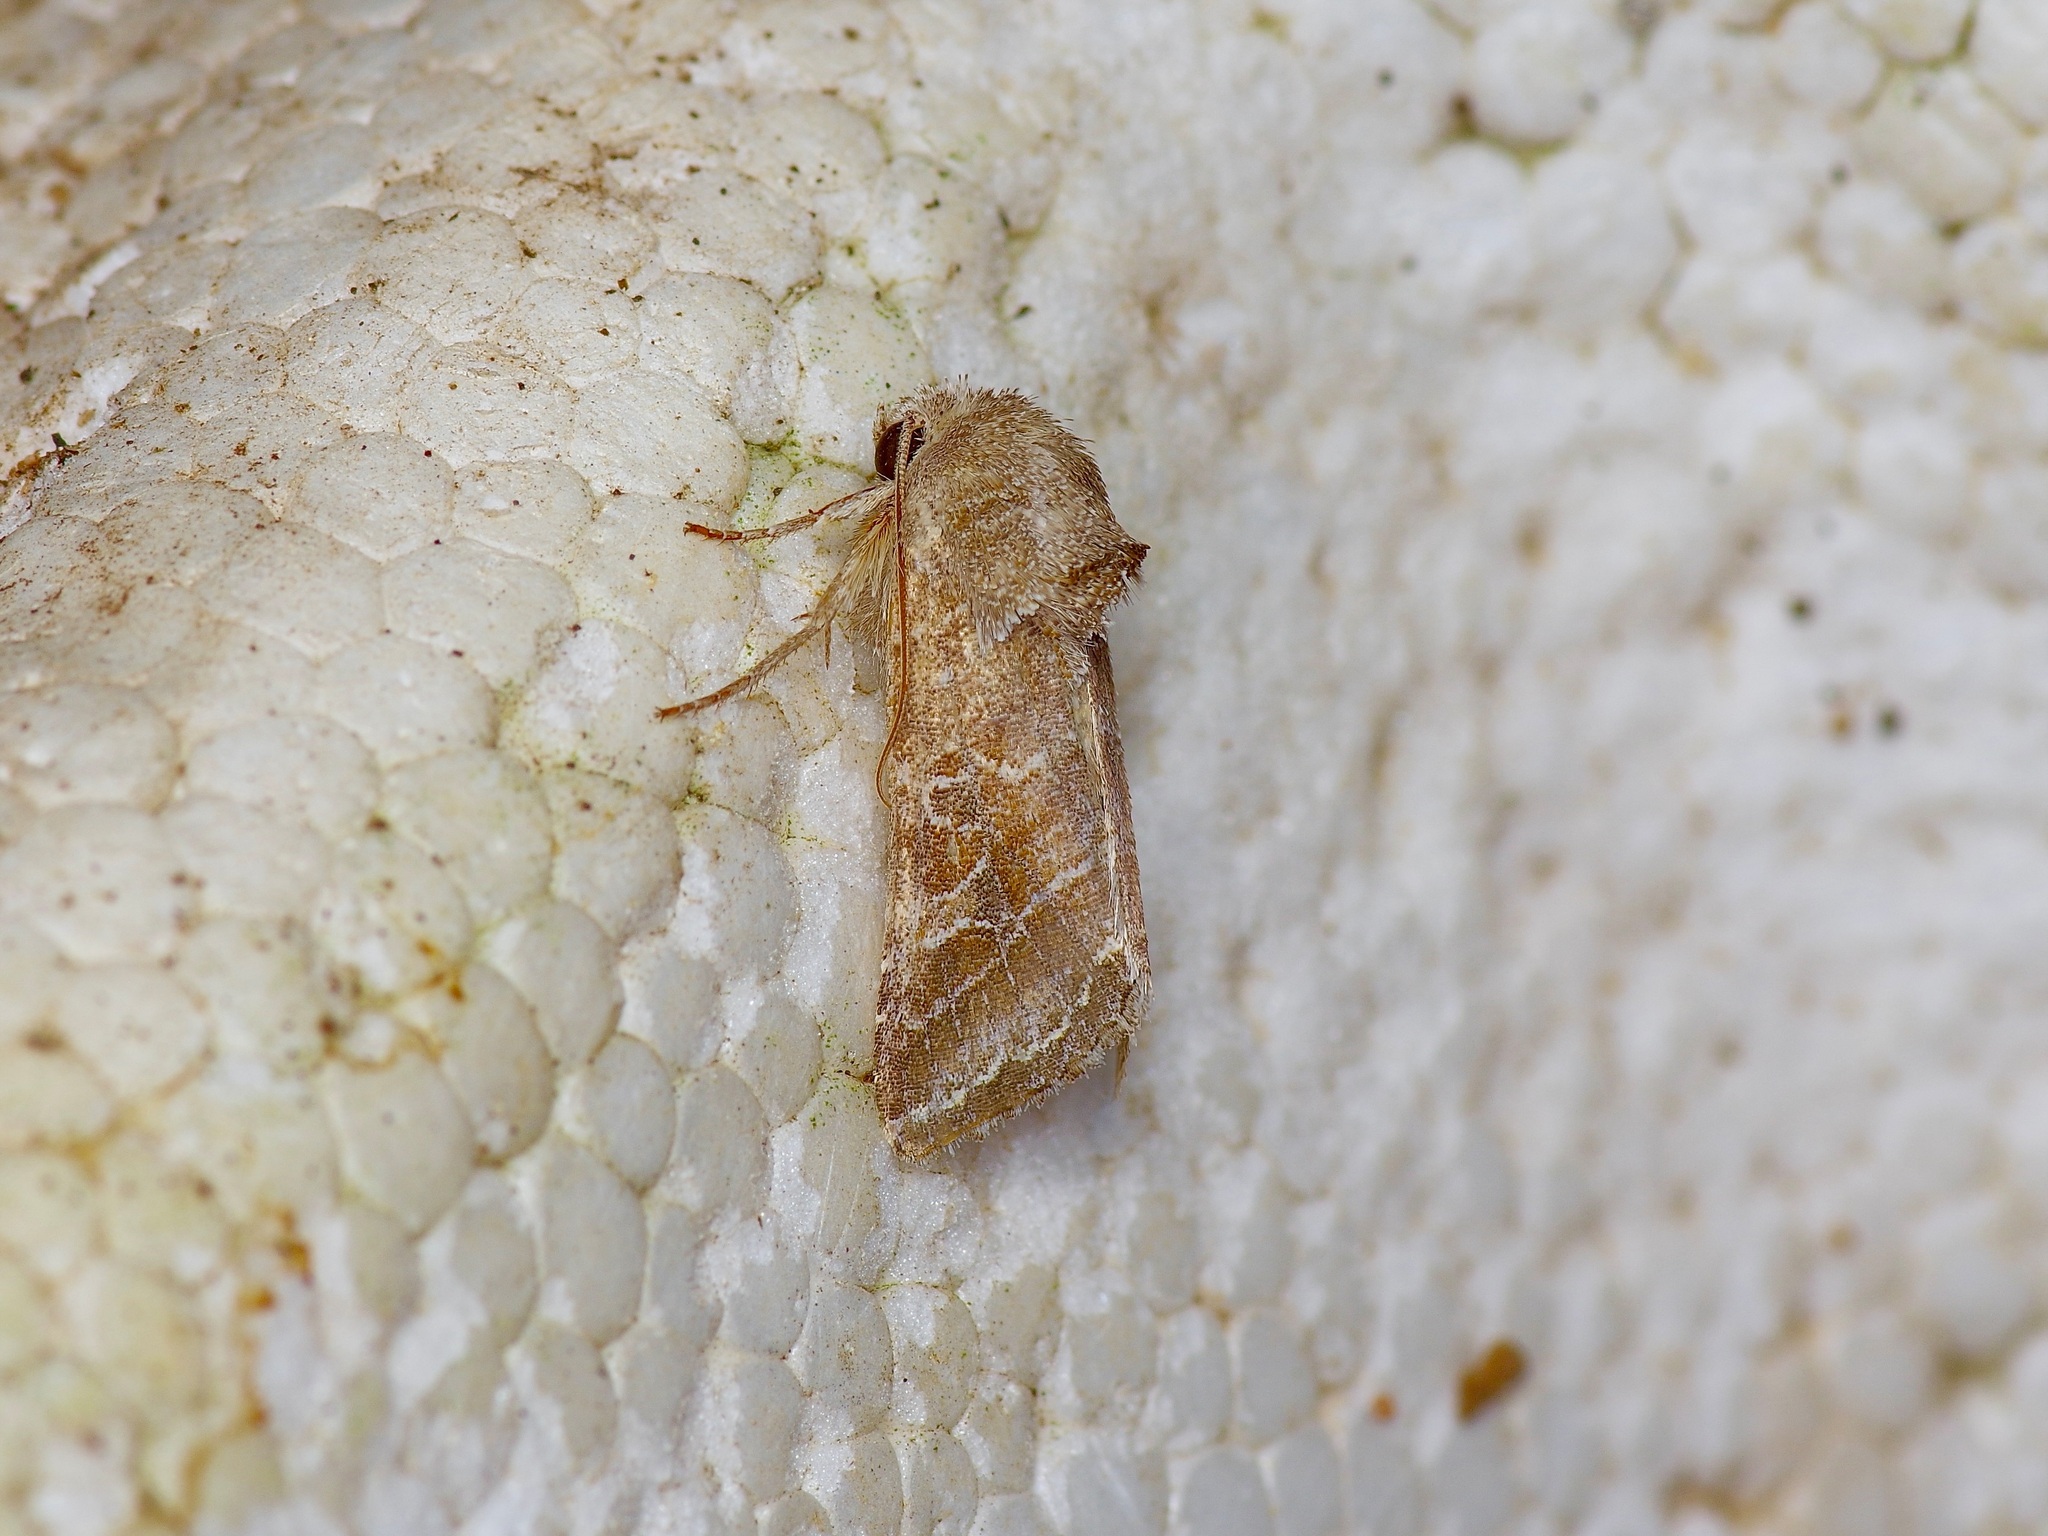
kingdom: Animalia
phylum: Arthropoda
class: Insecta
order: Lepidoptera
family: Noctuidae
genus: Lacinipolia
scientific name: Lacinipolia erecta
